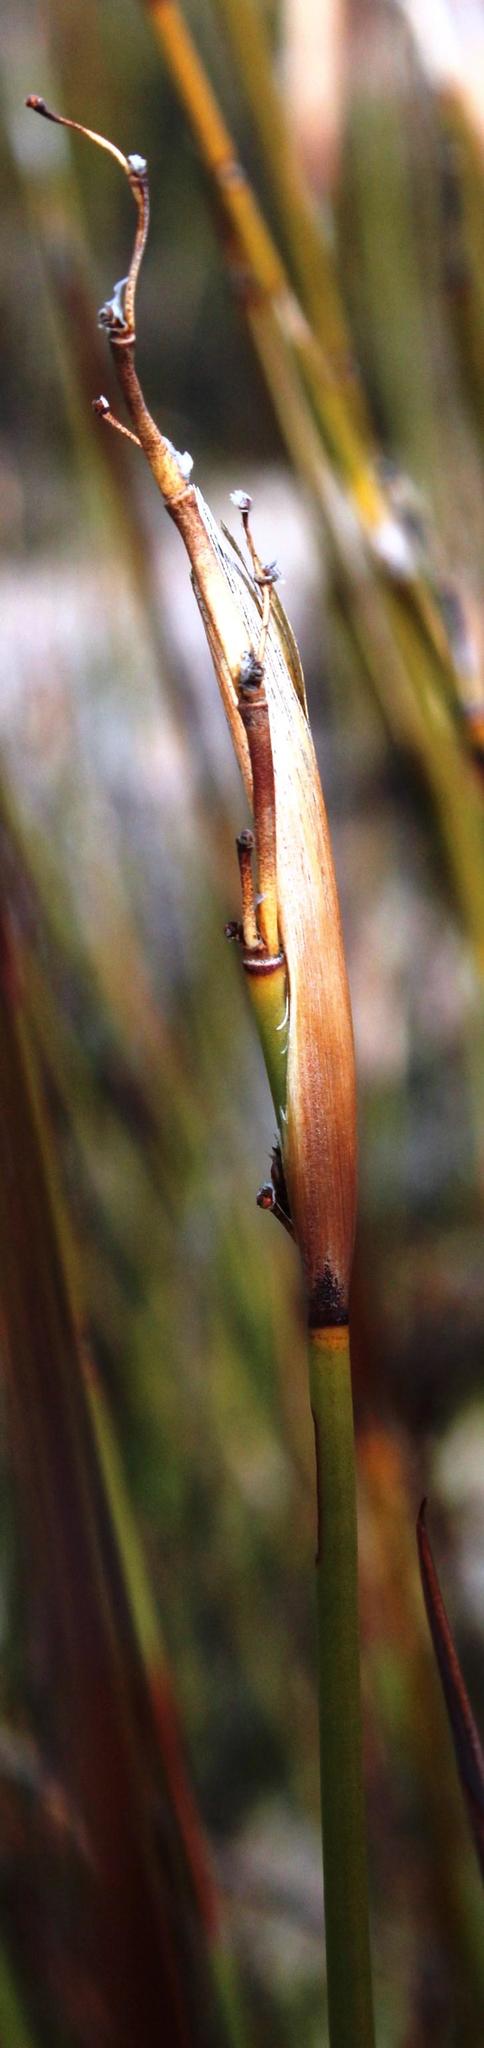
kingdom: Plantae
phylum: Tracheophyta
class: Liliopsida
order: Poales
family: Restionaceae
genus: Cannomois
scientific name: Cannomois parviflora
